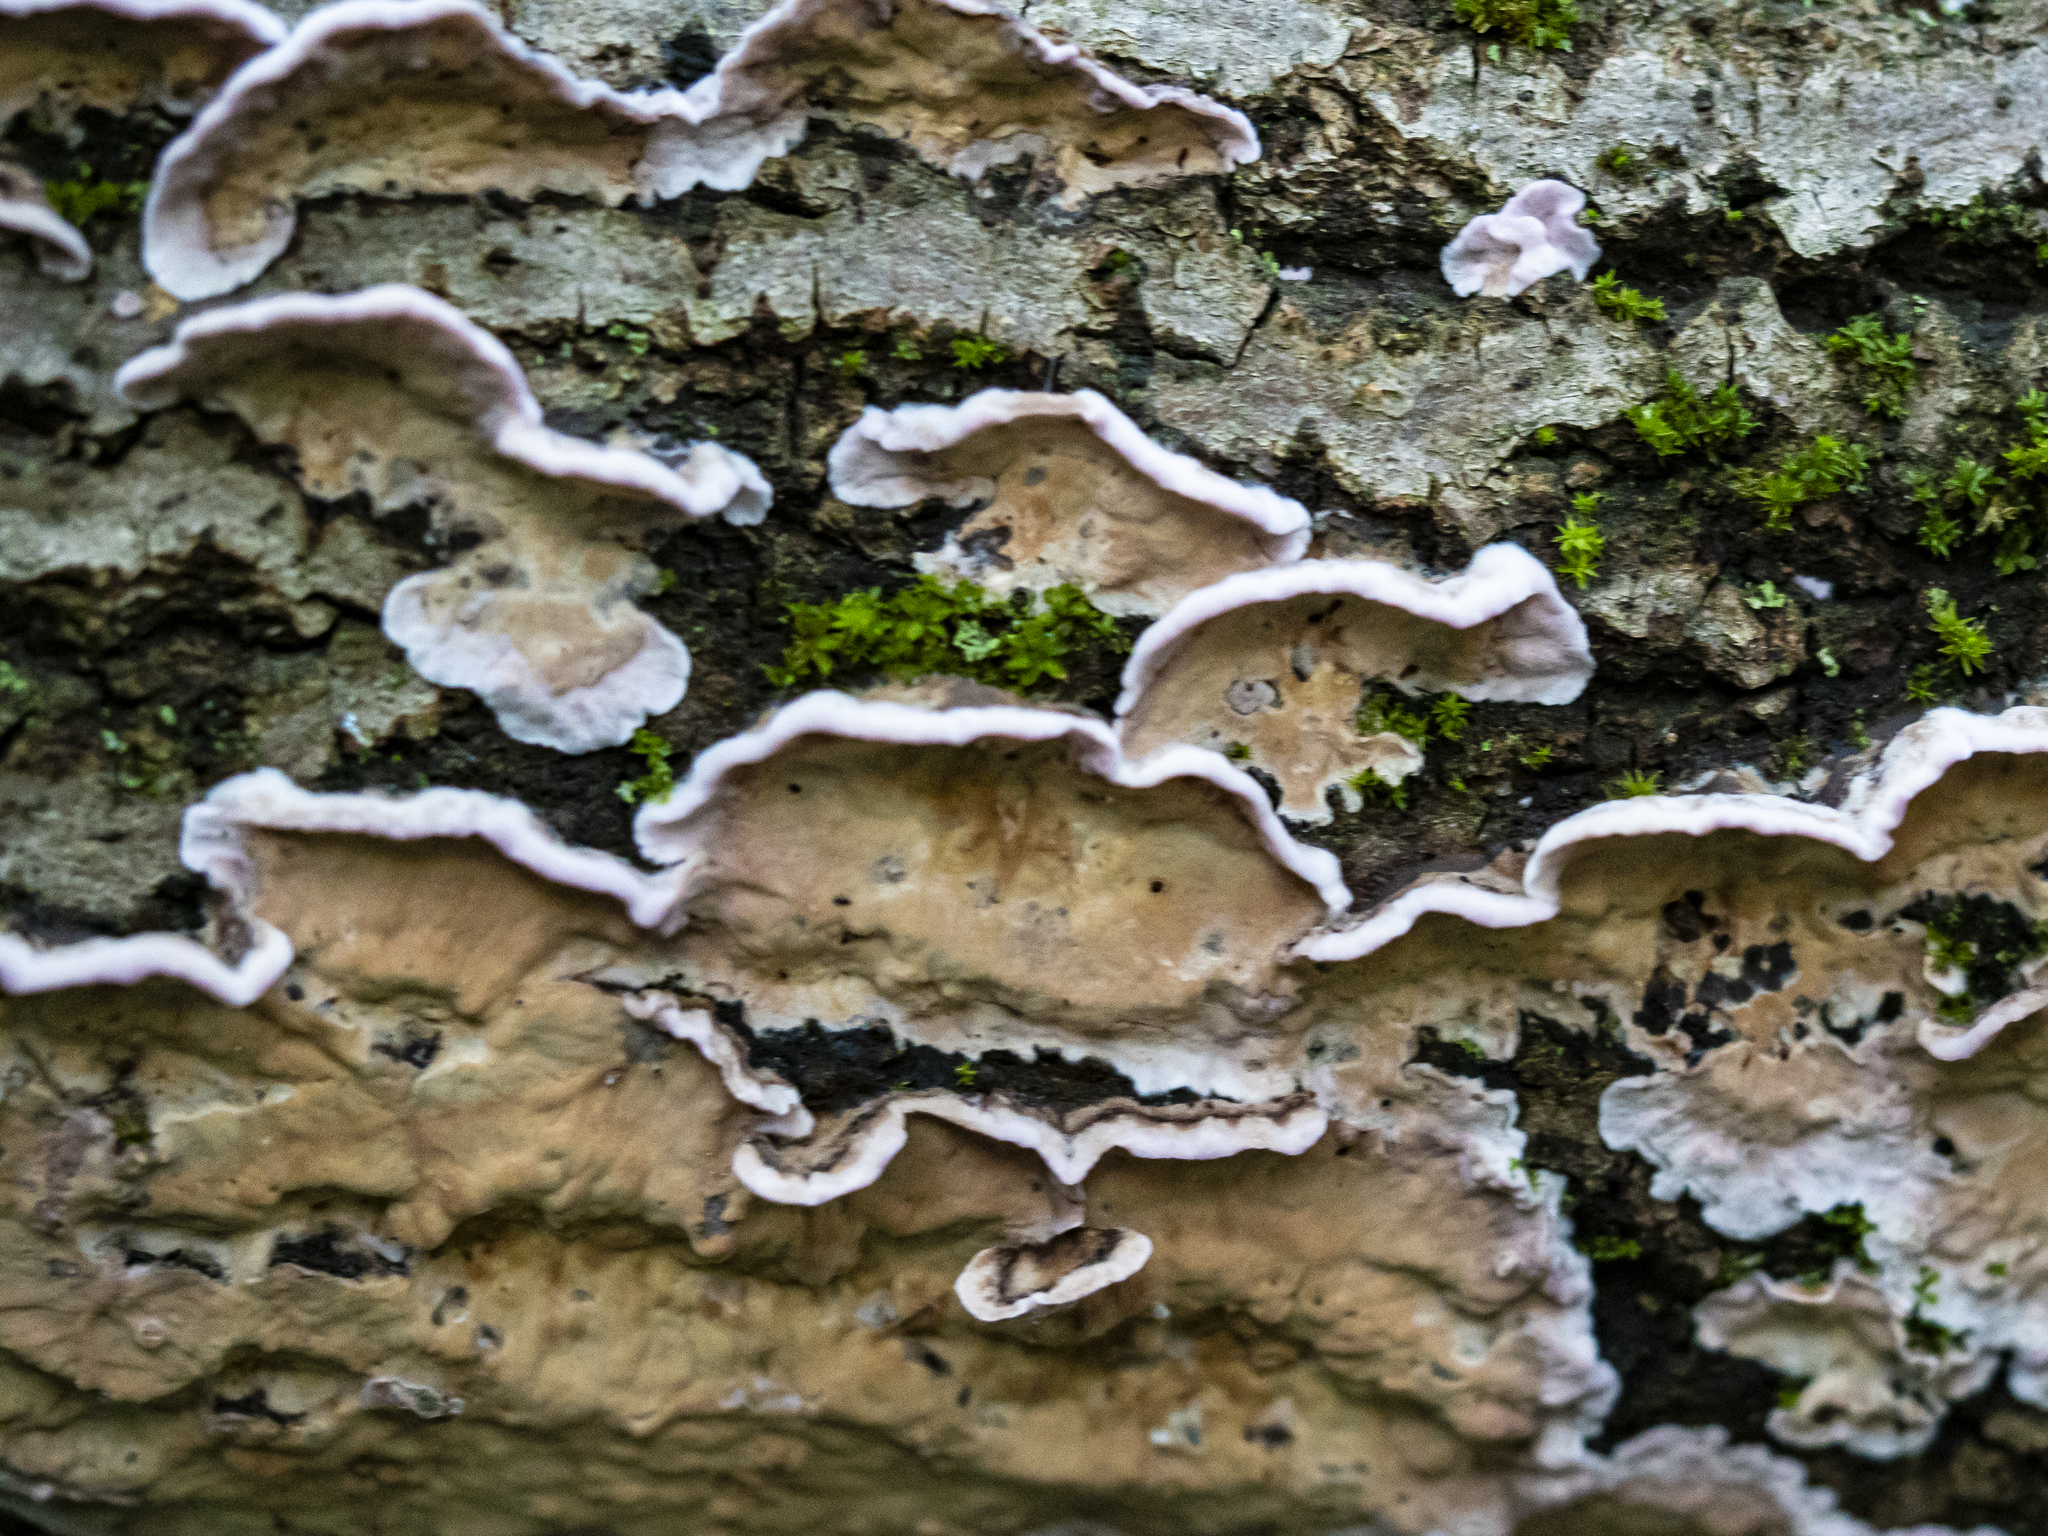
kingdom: Fungi
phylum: Basidiomycota
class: Agaricomycetes
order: Agaricales
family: Cyphellaceae
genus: Chondrostereum
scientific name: Chondrostereum purpureum
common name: Silver leaf disease
